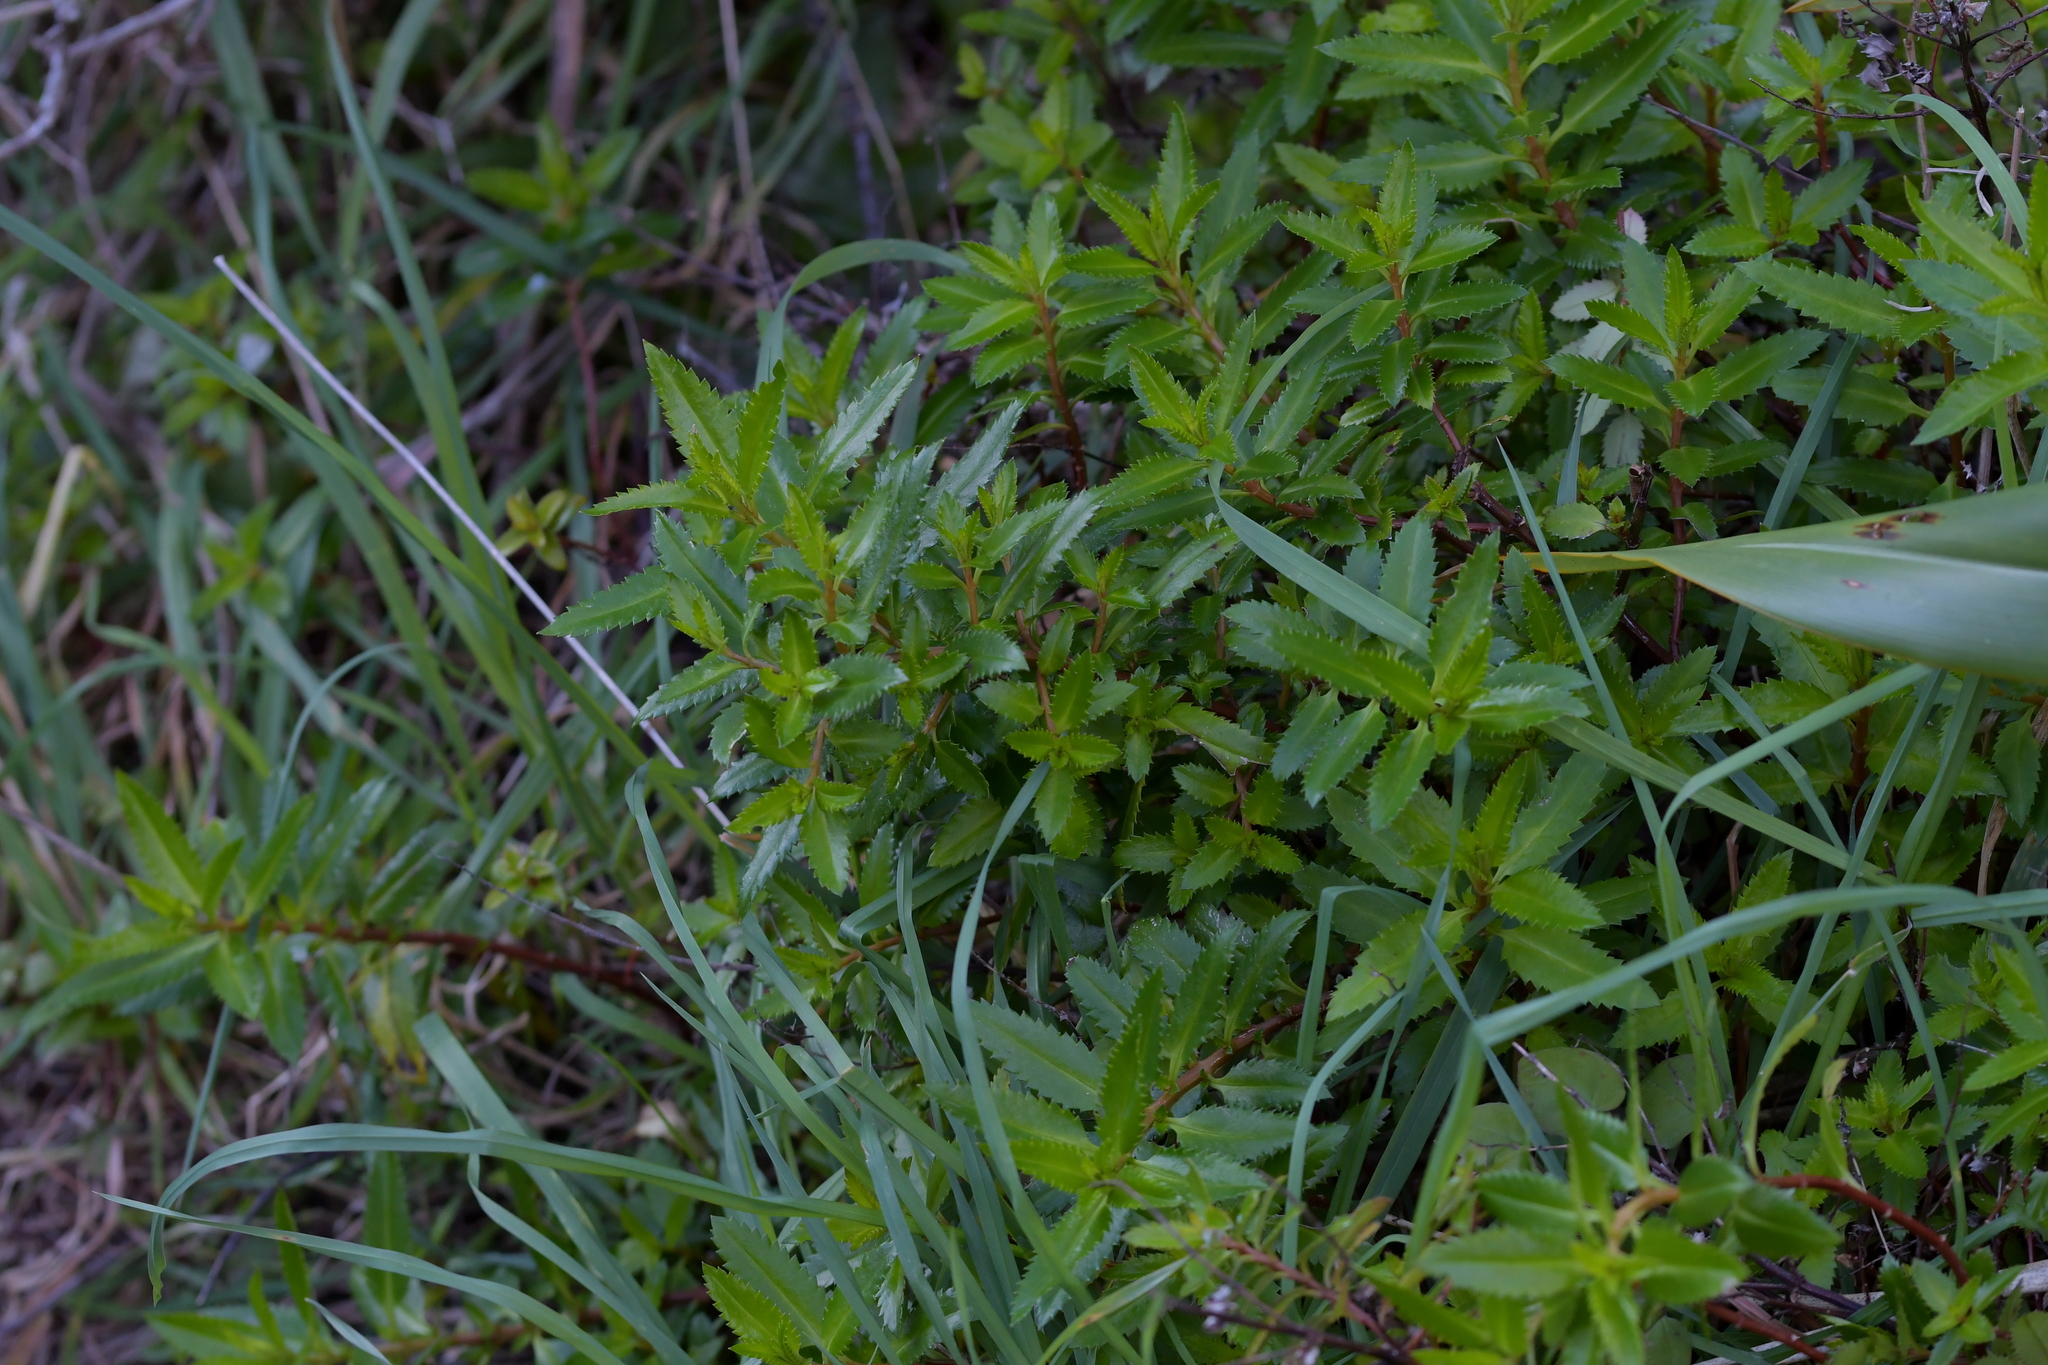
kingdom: Plantae
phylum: Tracheophyta
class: Magnoliopsida
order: Saxifragales
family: Haloragaceae
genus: Haloragis
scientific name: Haloragis erecta
